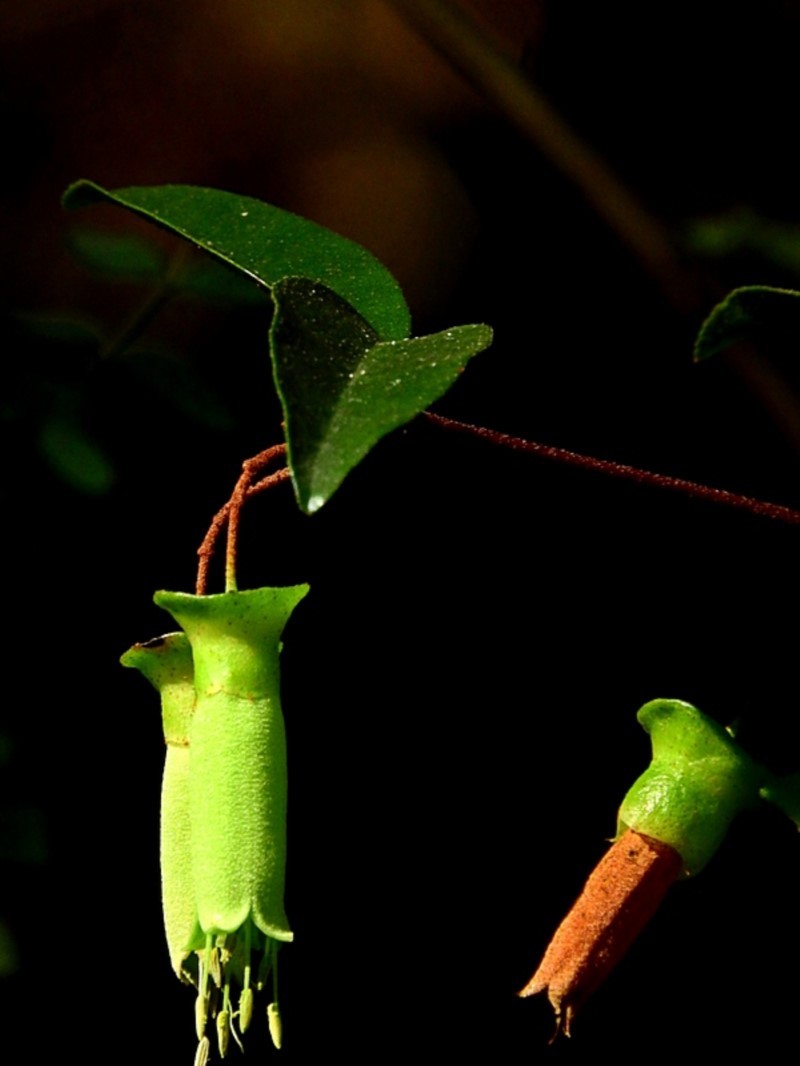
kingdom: Plantae
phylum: Tracheophyta
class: Magnoliopsida
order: Sapindales
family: Rutaceae
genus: Correa
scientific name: Correa baeuerlenii
